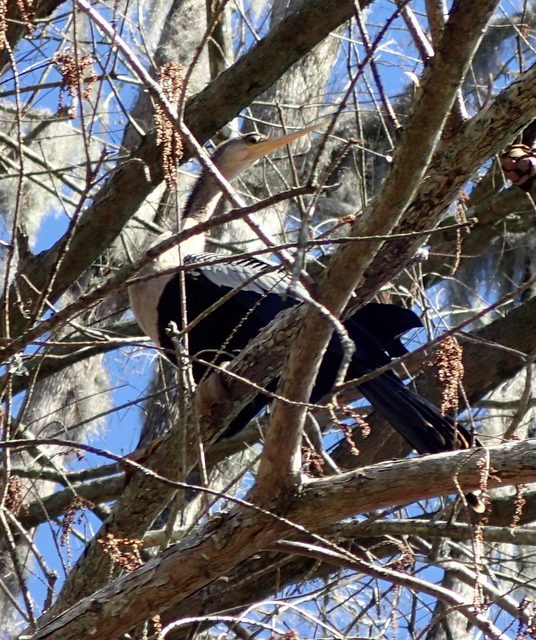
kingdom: Animalia
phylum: Chordata
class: Aves
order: Suliformes
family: Anhingidae
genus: Anhinga
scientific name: Anhinga anhinga
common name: Anhinga
